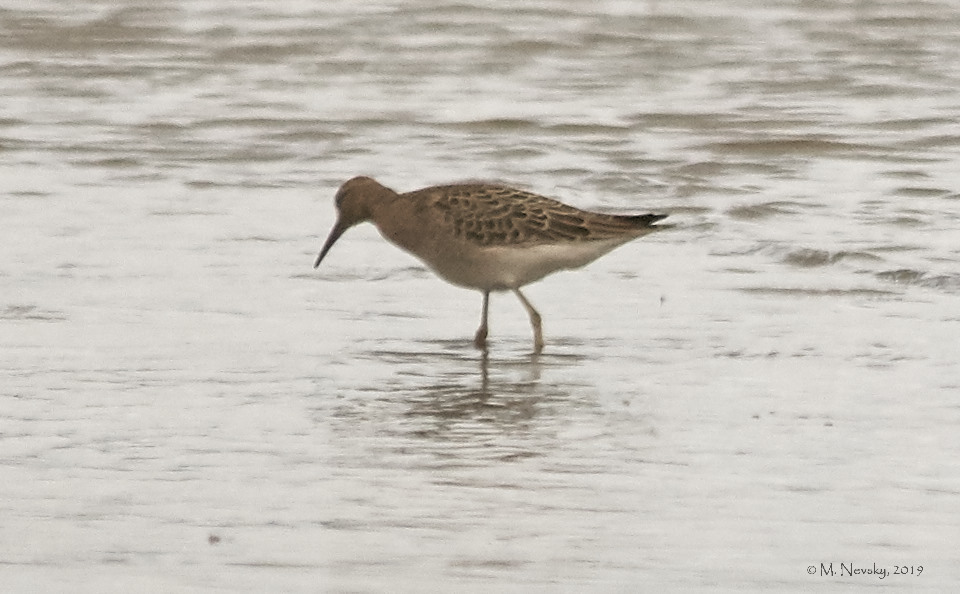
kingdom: Animalia
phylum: Chordata
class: Aves
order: Charadriiformes
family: Scolopacidae
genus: Calidris
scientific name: Calidris pugnax
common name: Ruff
